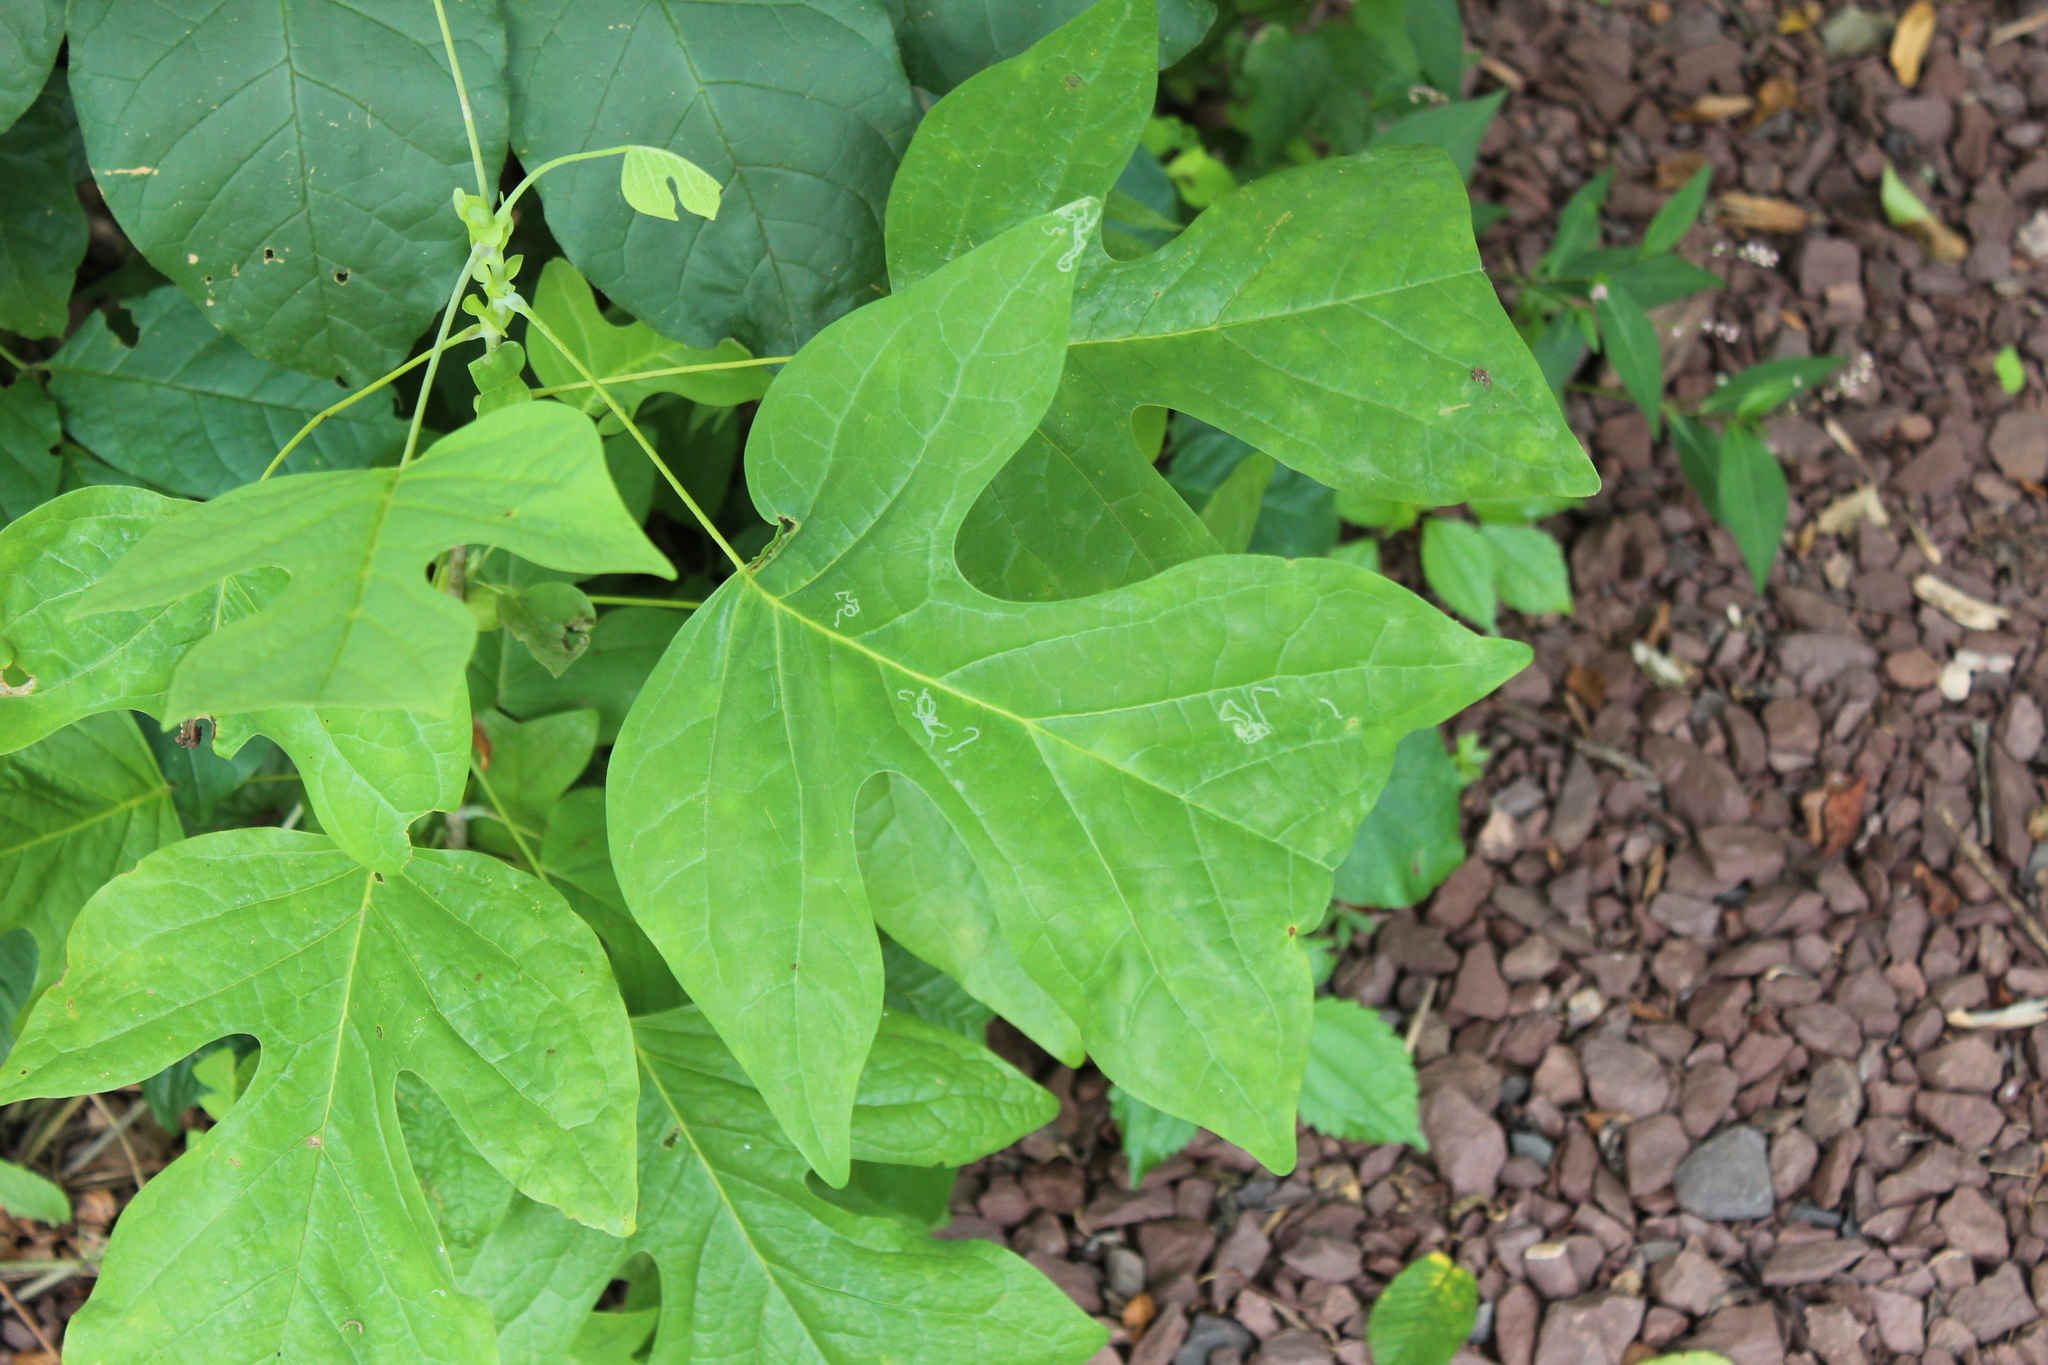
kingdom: Plantae
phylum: Tracheophyta
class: Magnoliopsida
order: Magnoliales
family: Magnoliaceae
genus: Liriodendron
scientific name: Liriodendron tulipifera
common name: Tulip tree
